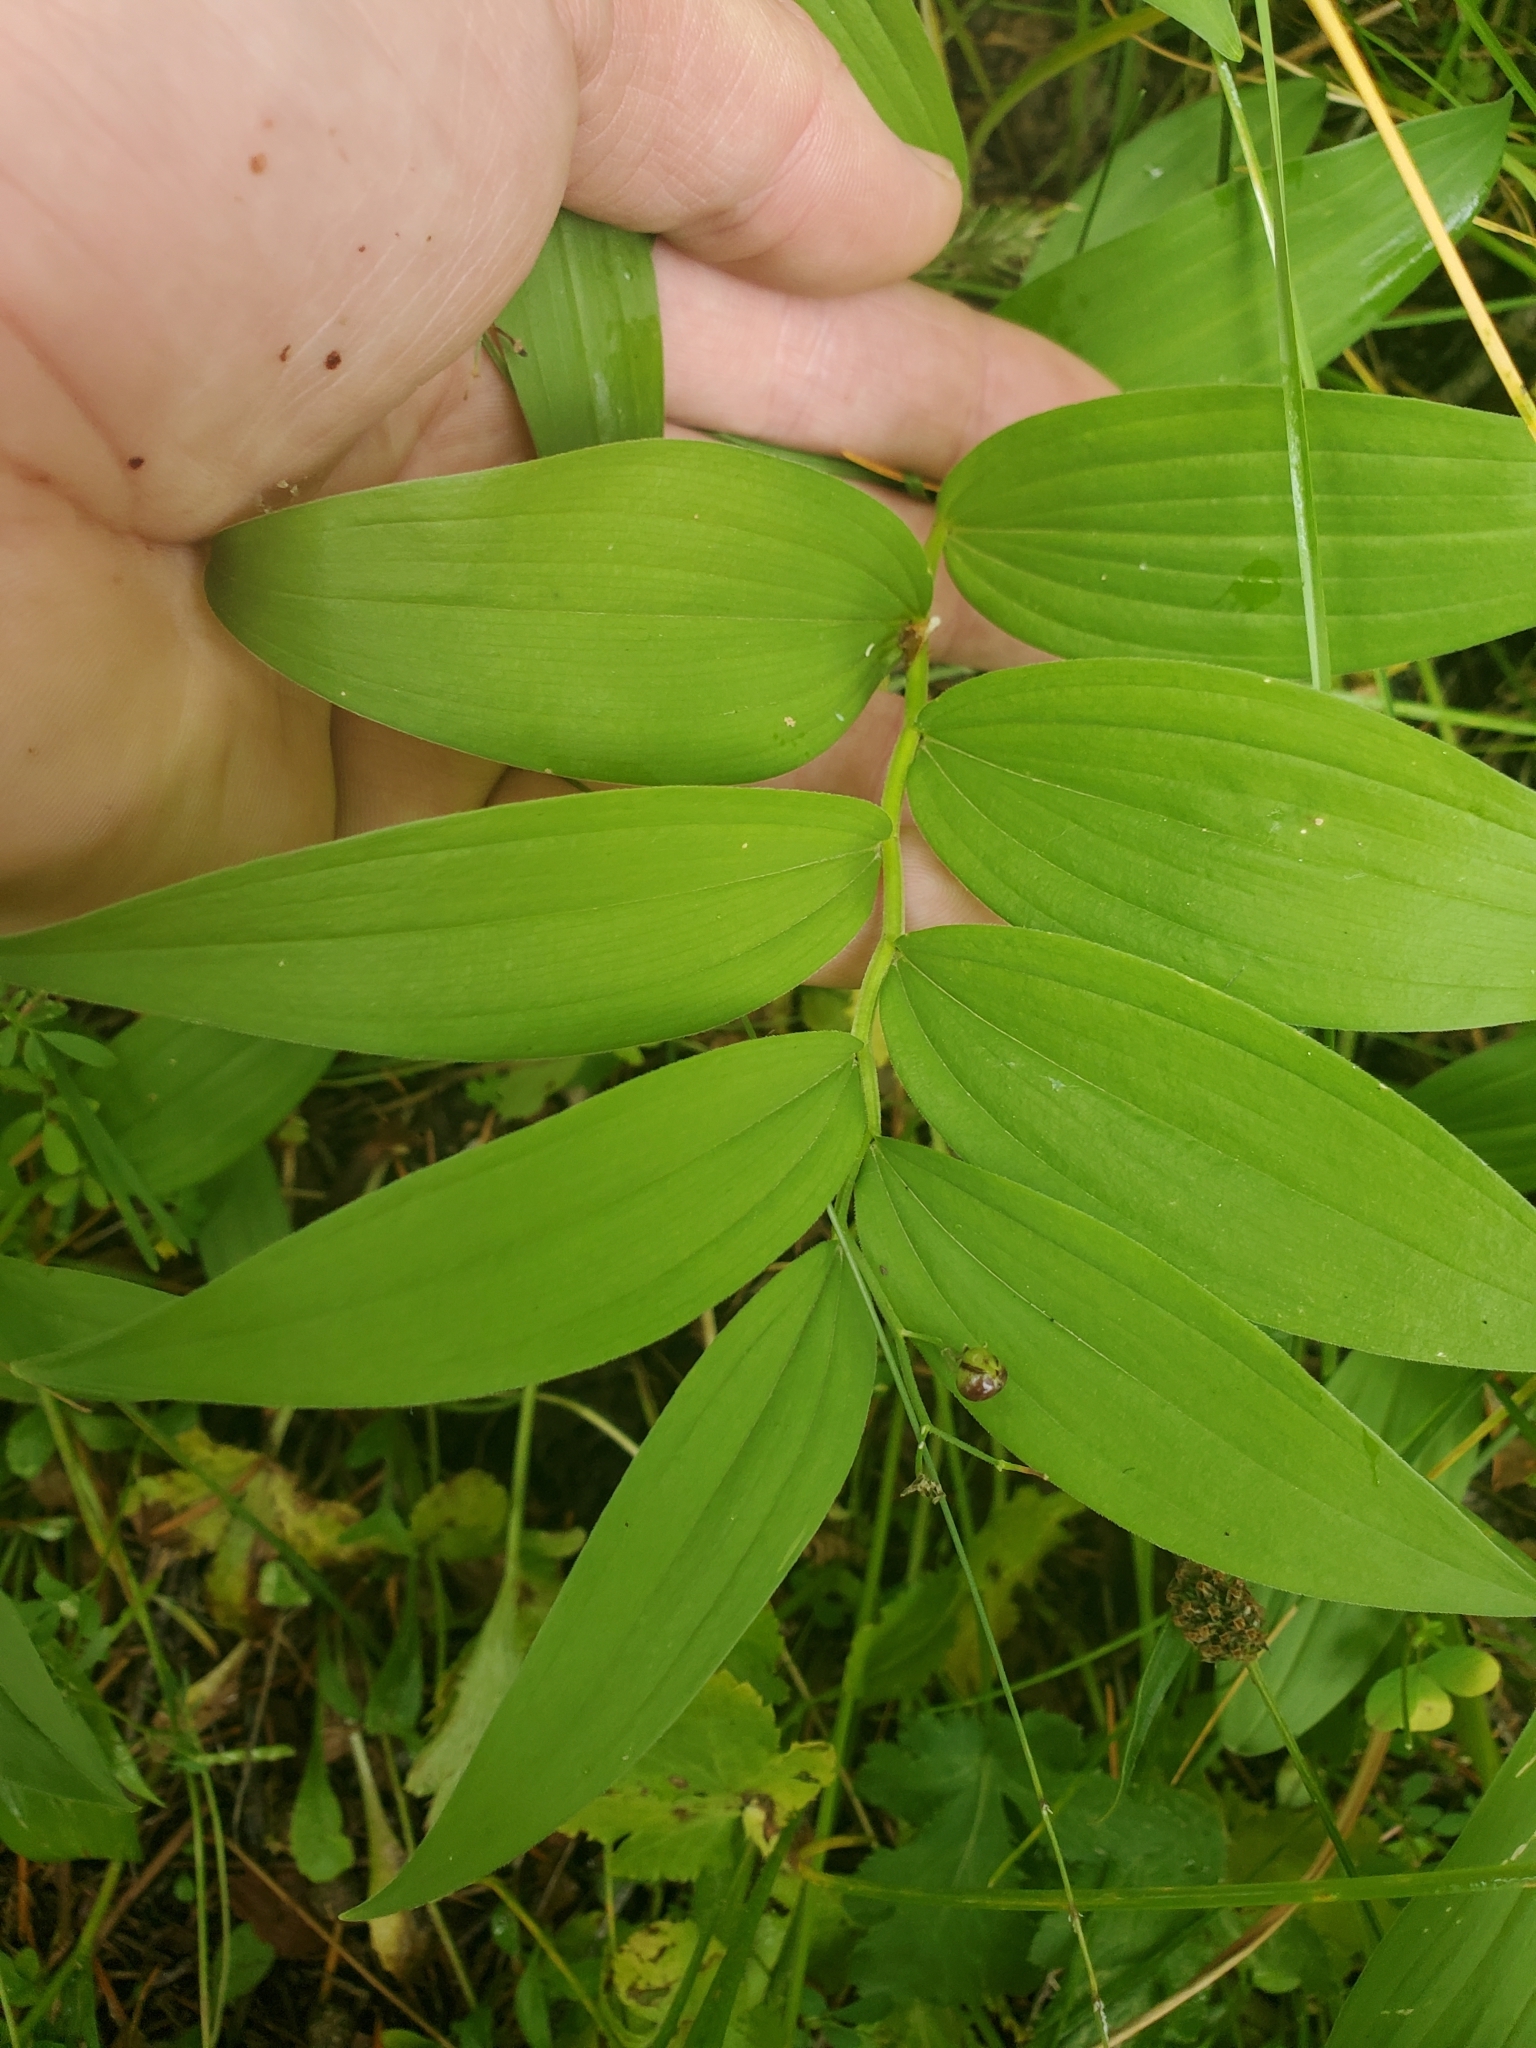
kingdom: Plantae
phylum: Tracheophyta
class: Liliopsida
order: Asparagales
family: Asparagaceae
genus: Maianthemum
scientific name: Maianthemum stellatum
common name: Little false solomon's seal
